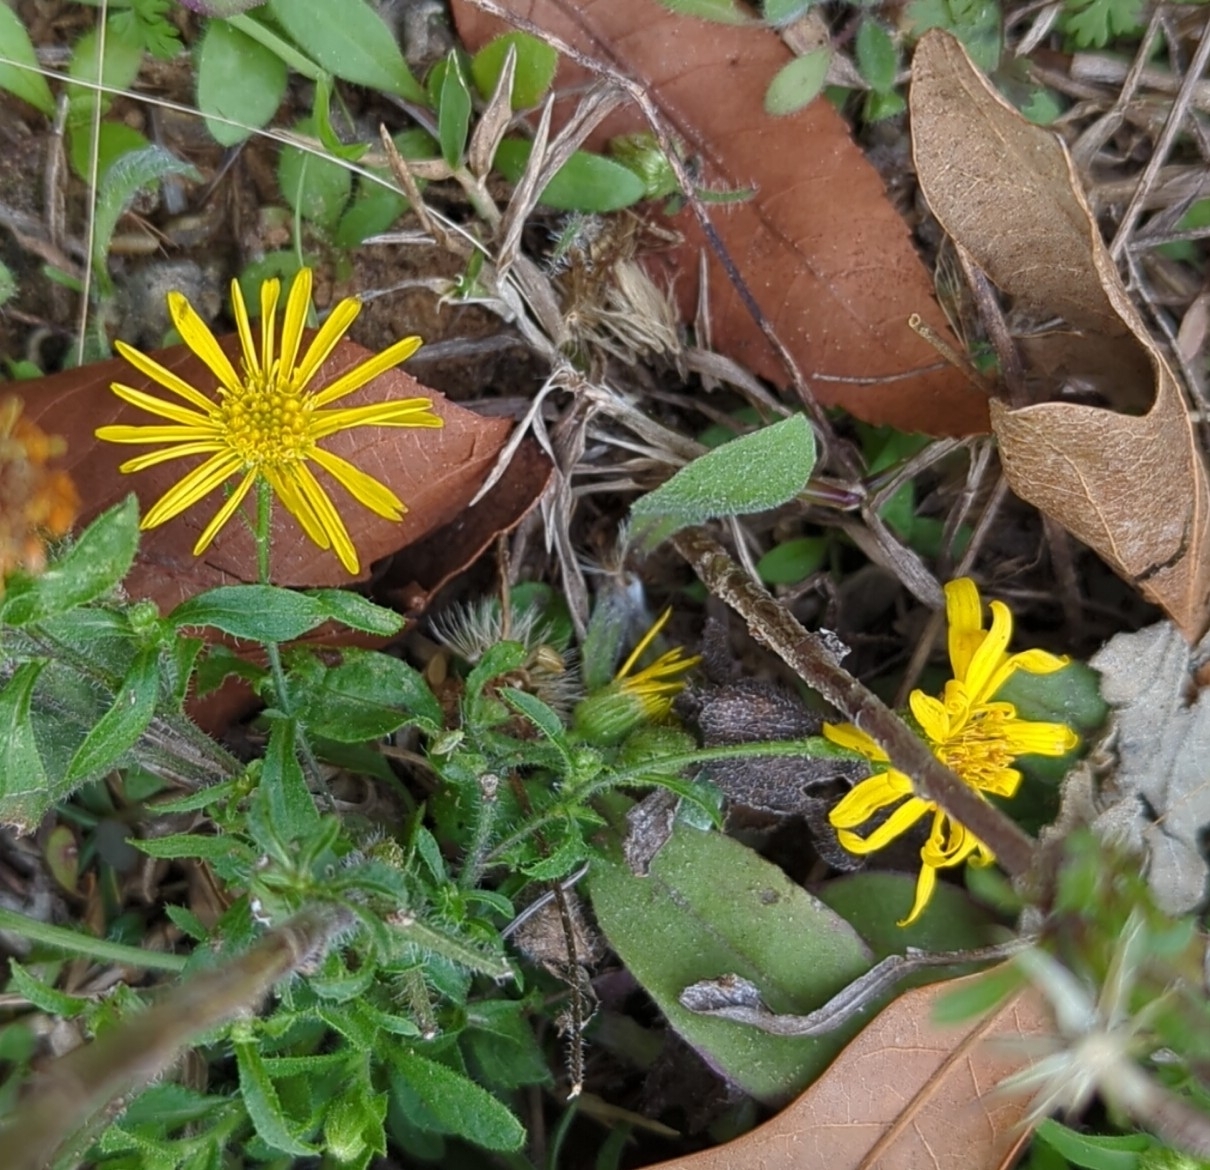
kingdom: Plantae
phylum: Tracheophyta
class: Magnoliopsida
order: Asterales
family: Asteraceae
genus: Heterotheca
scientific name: Heterotheca subaxillaris
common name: Camphorweed
